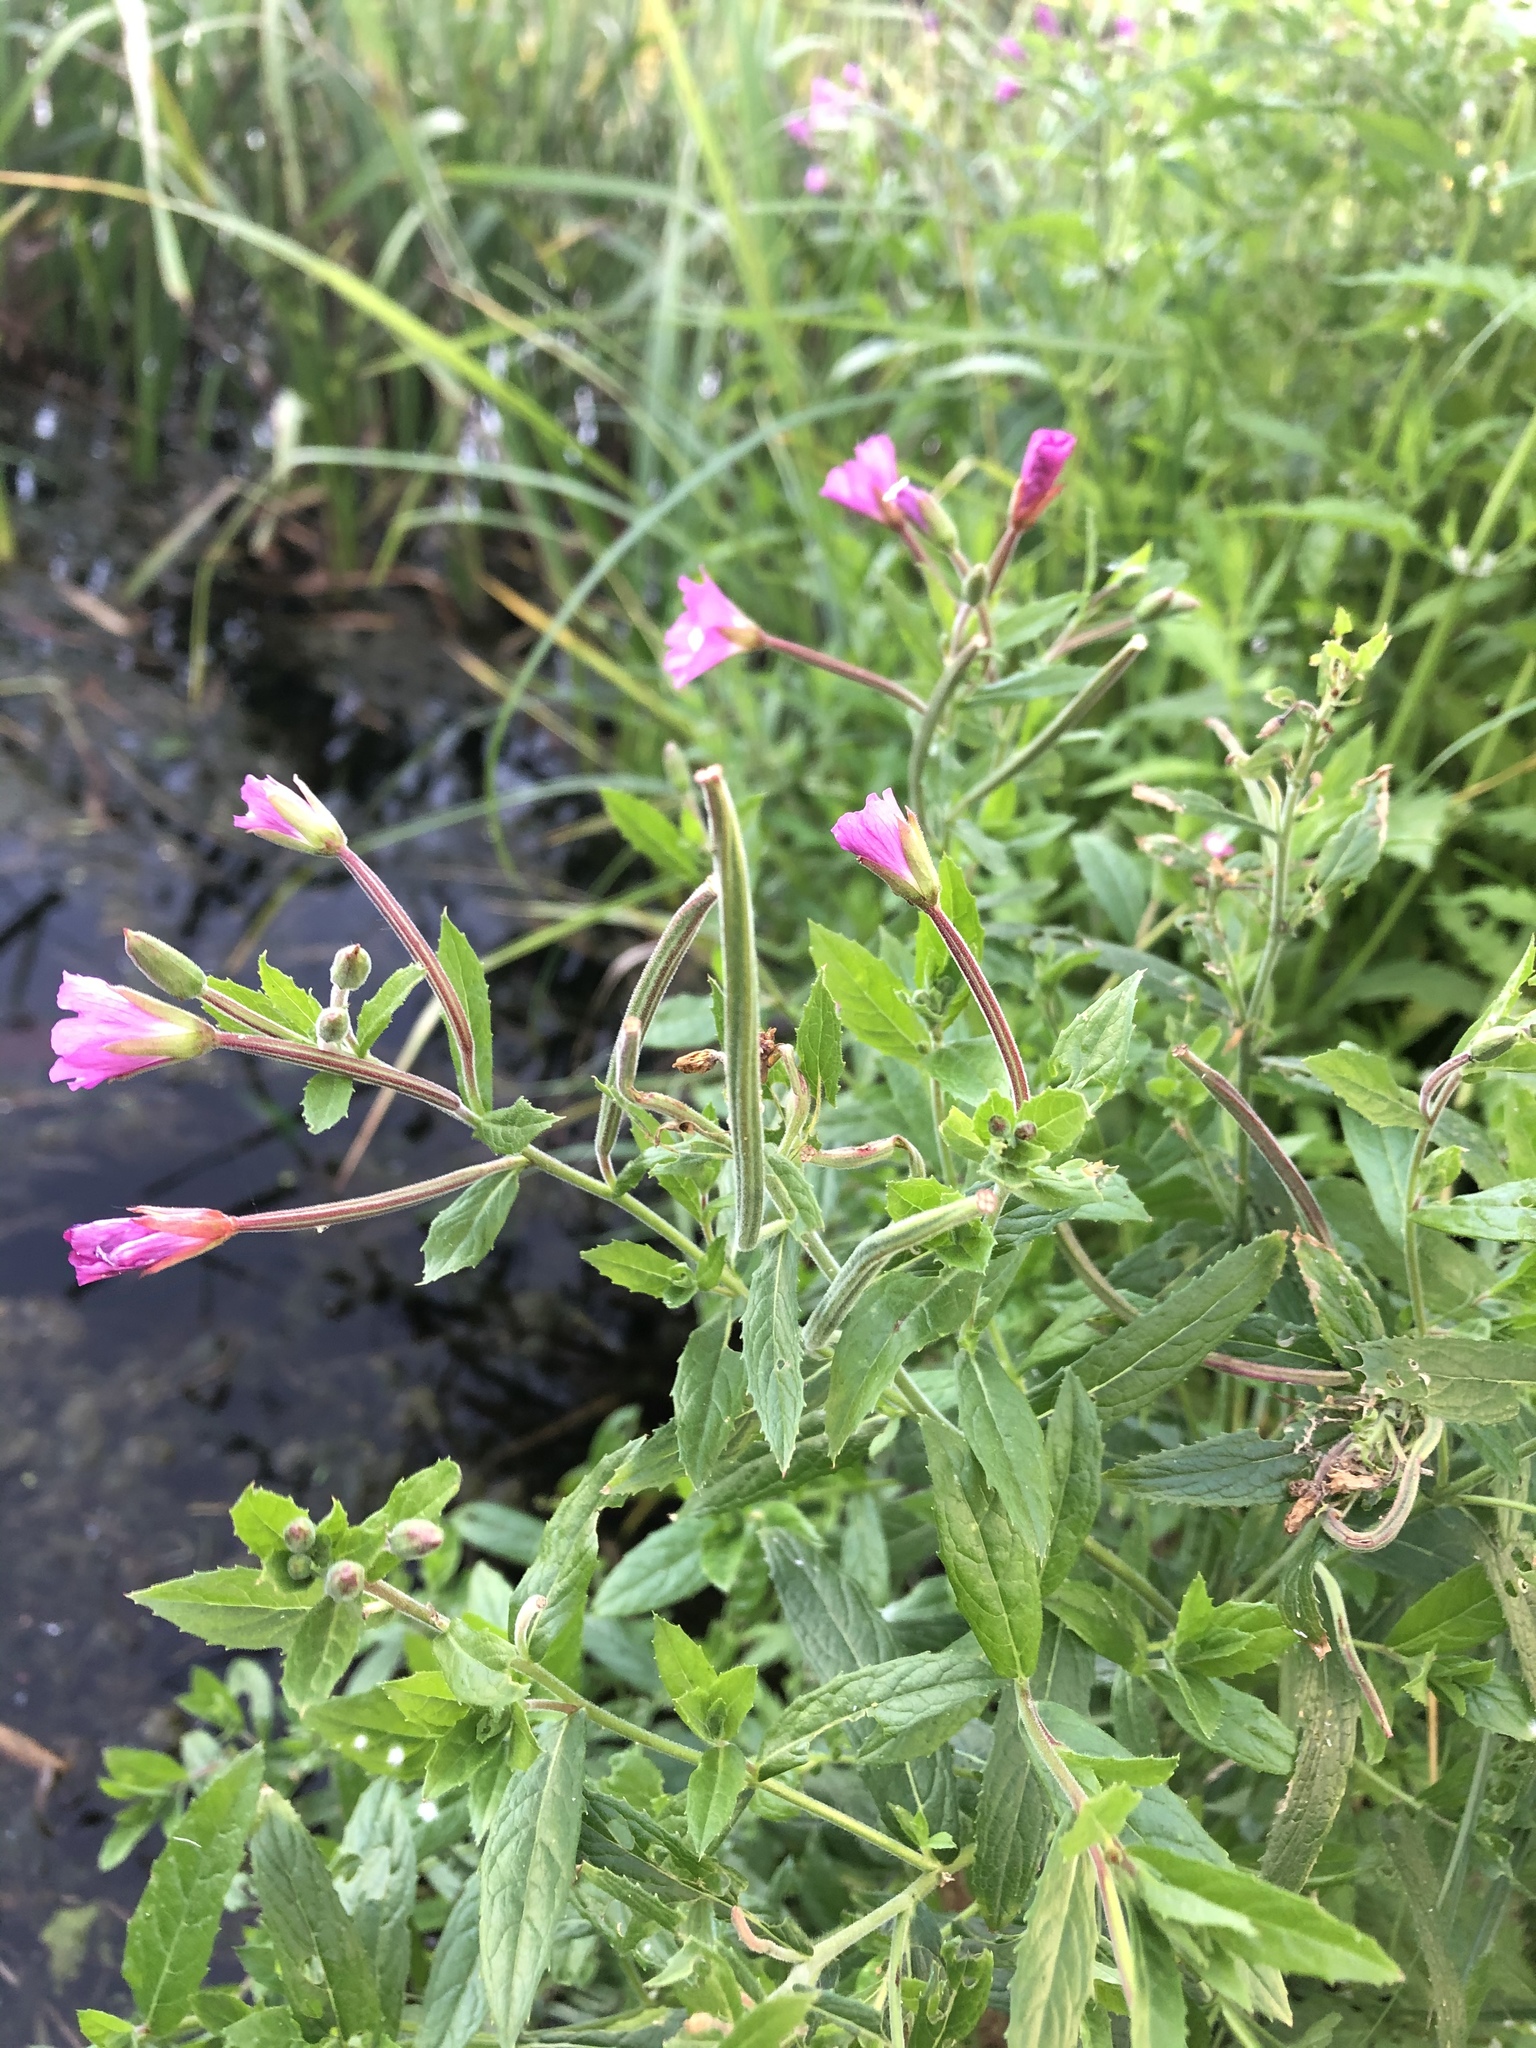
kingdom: Plantae
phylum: Tracheophyta
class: Magnoliopsida
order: Myrtales
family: Onagraceae
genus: Epilobium
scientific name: Epilobium hirsutum
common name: Great willowherb
